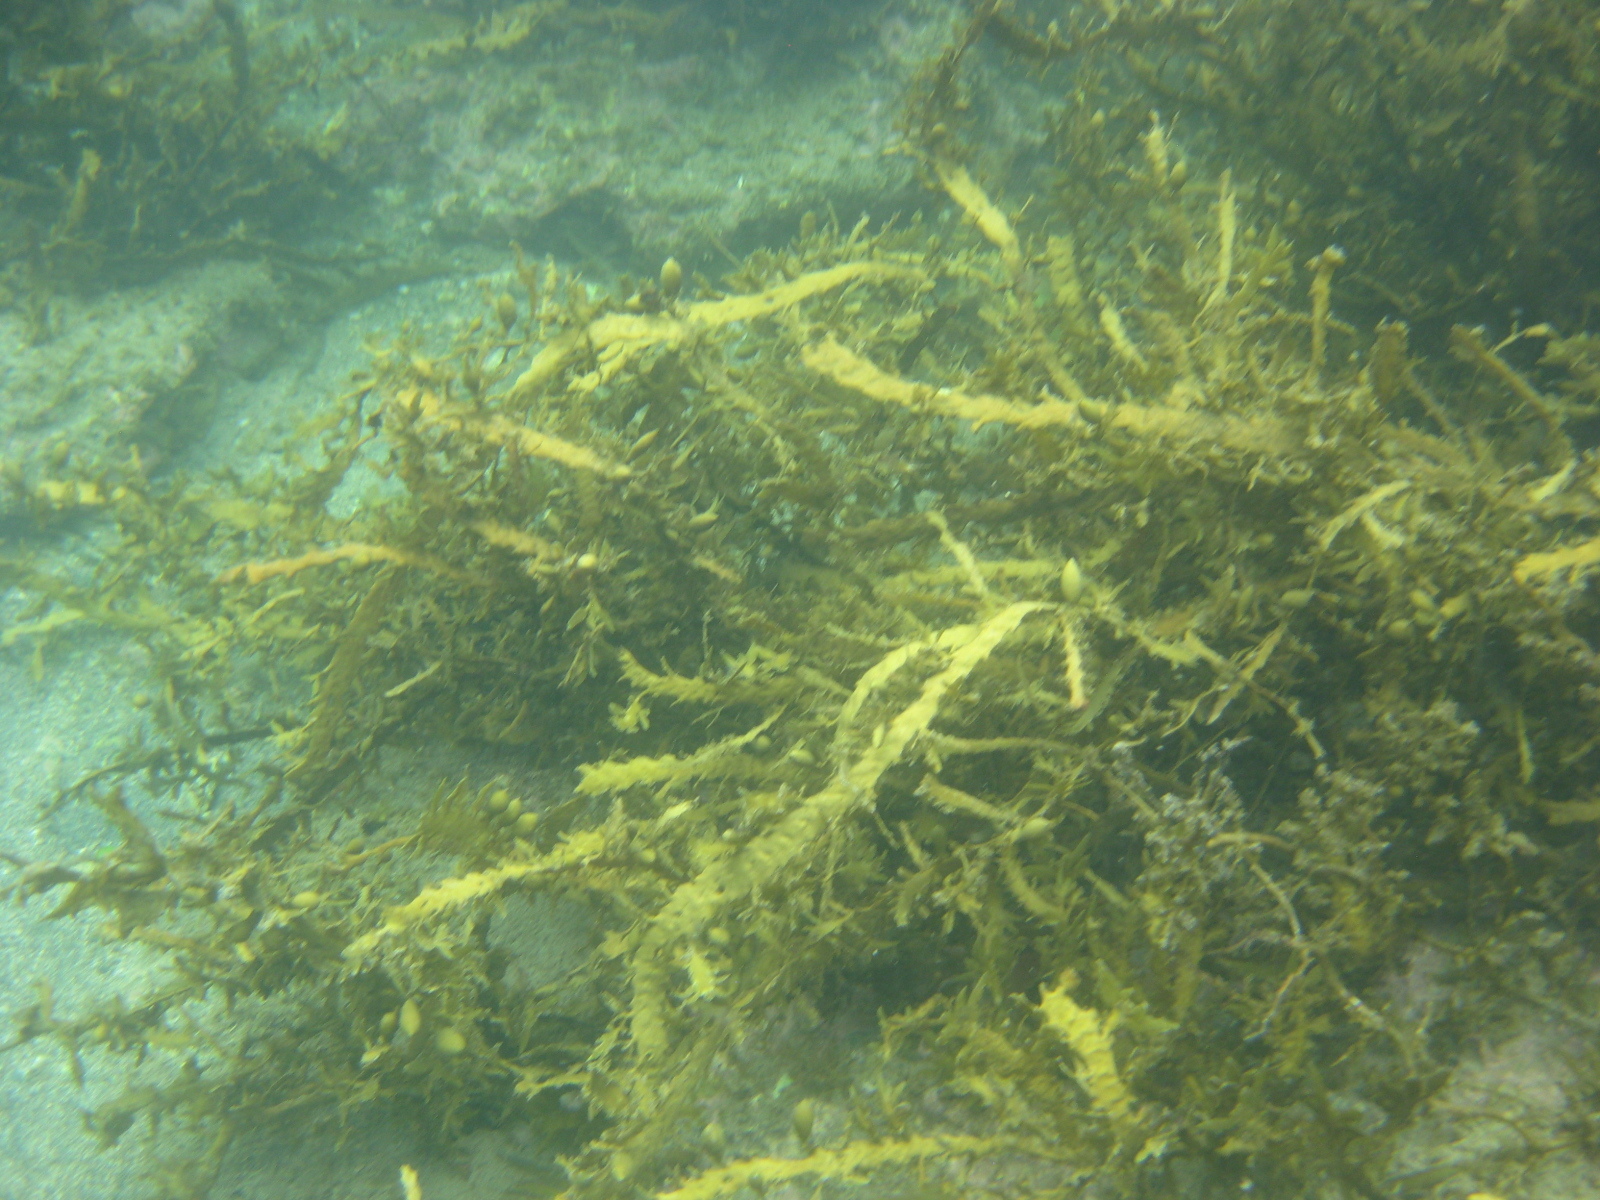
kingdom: Chromista
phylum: Ochrophyta
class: Phaeophyceae
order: Fucales
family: Sargassaceae
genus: Carpophyllum
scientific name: Carpophyllum maschalocarpum
